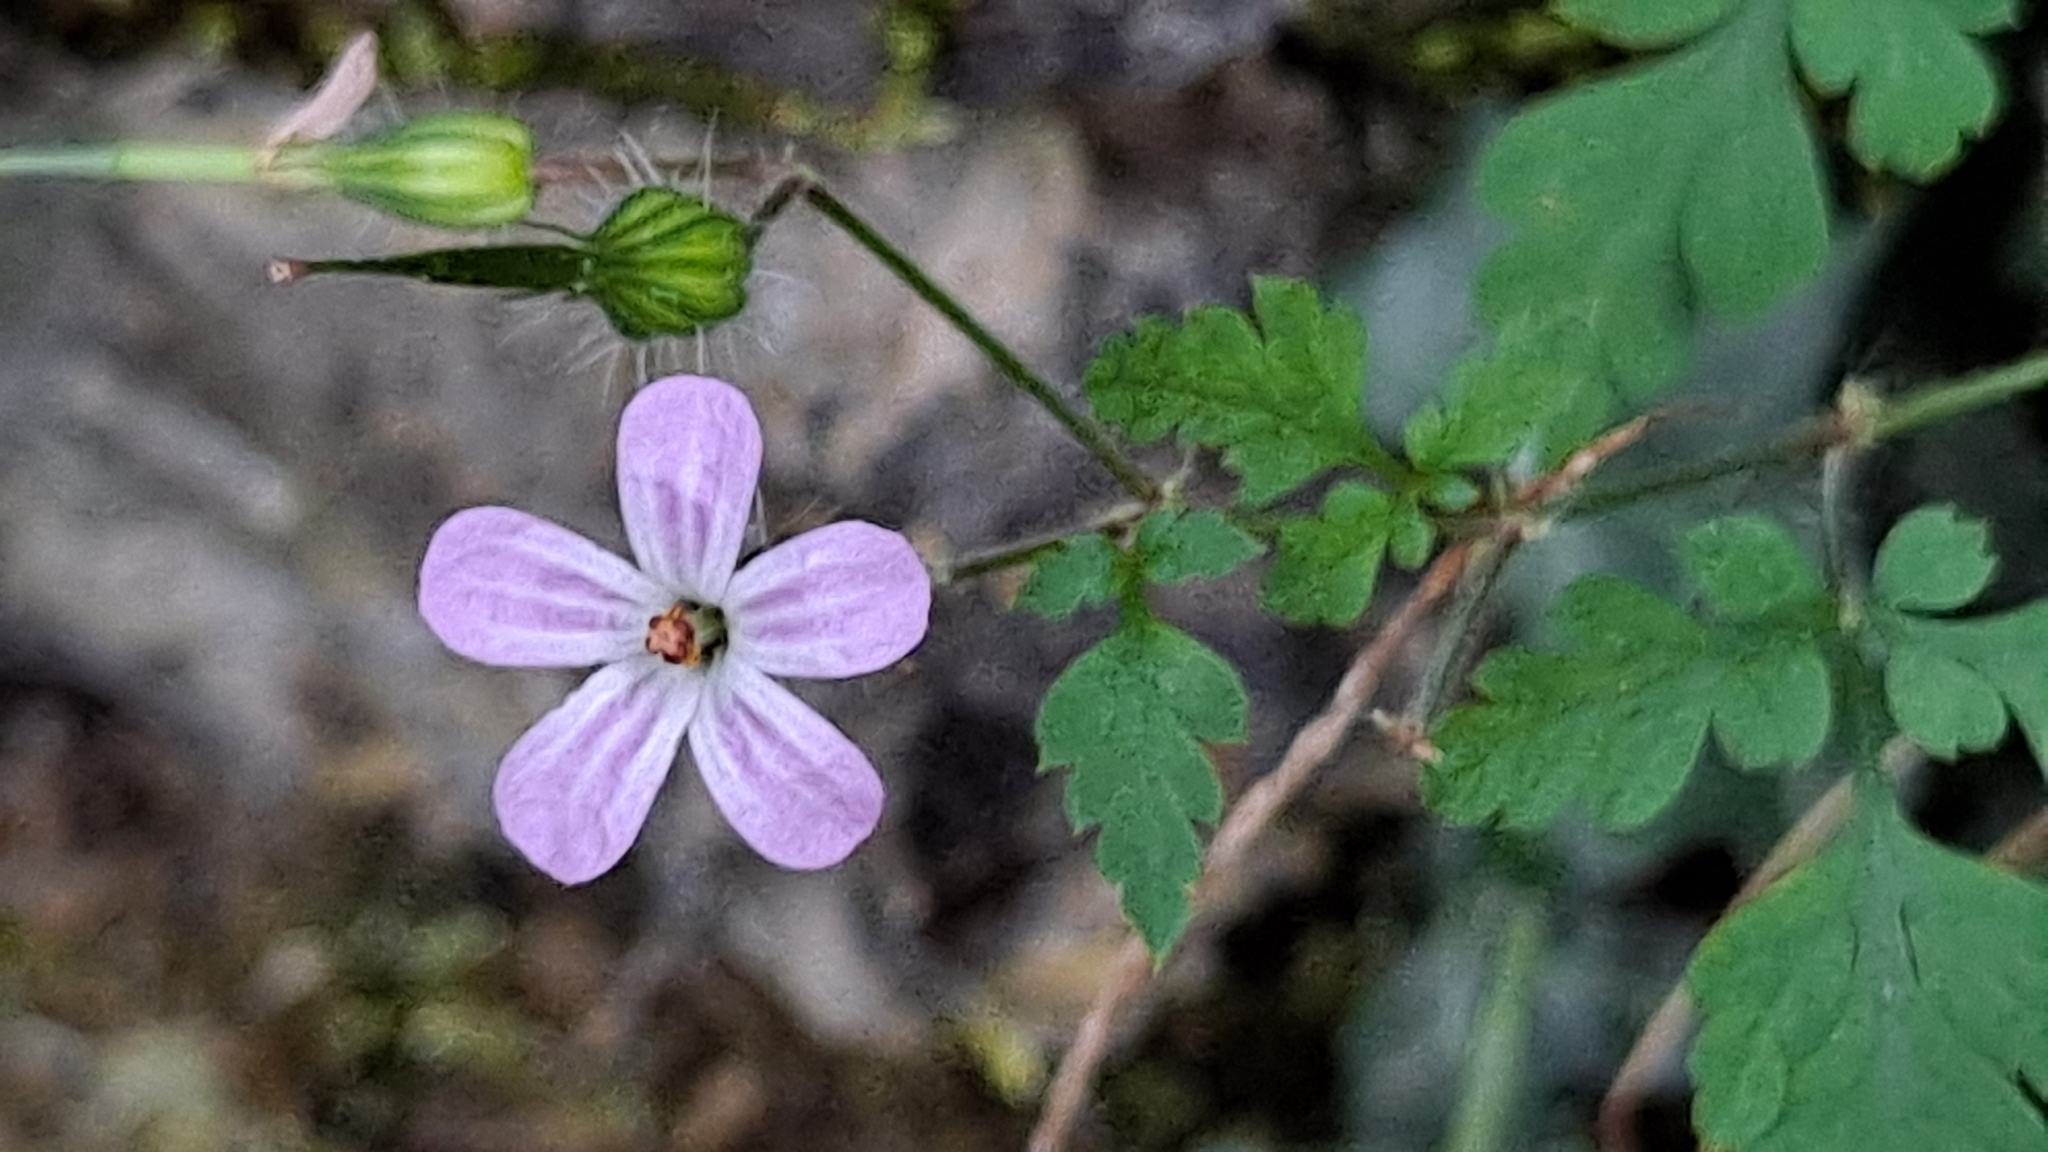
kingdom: Plantae
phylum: Tracheophyta
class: Magnoliopsida
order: Geraniales
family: Geraniaceae
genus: Geranium
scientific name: Geranium robertianum
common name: Herb-robert
